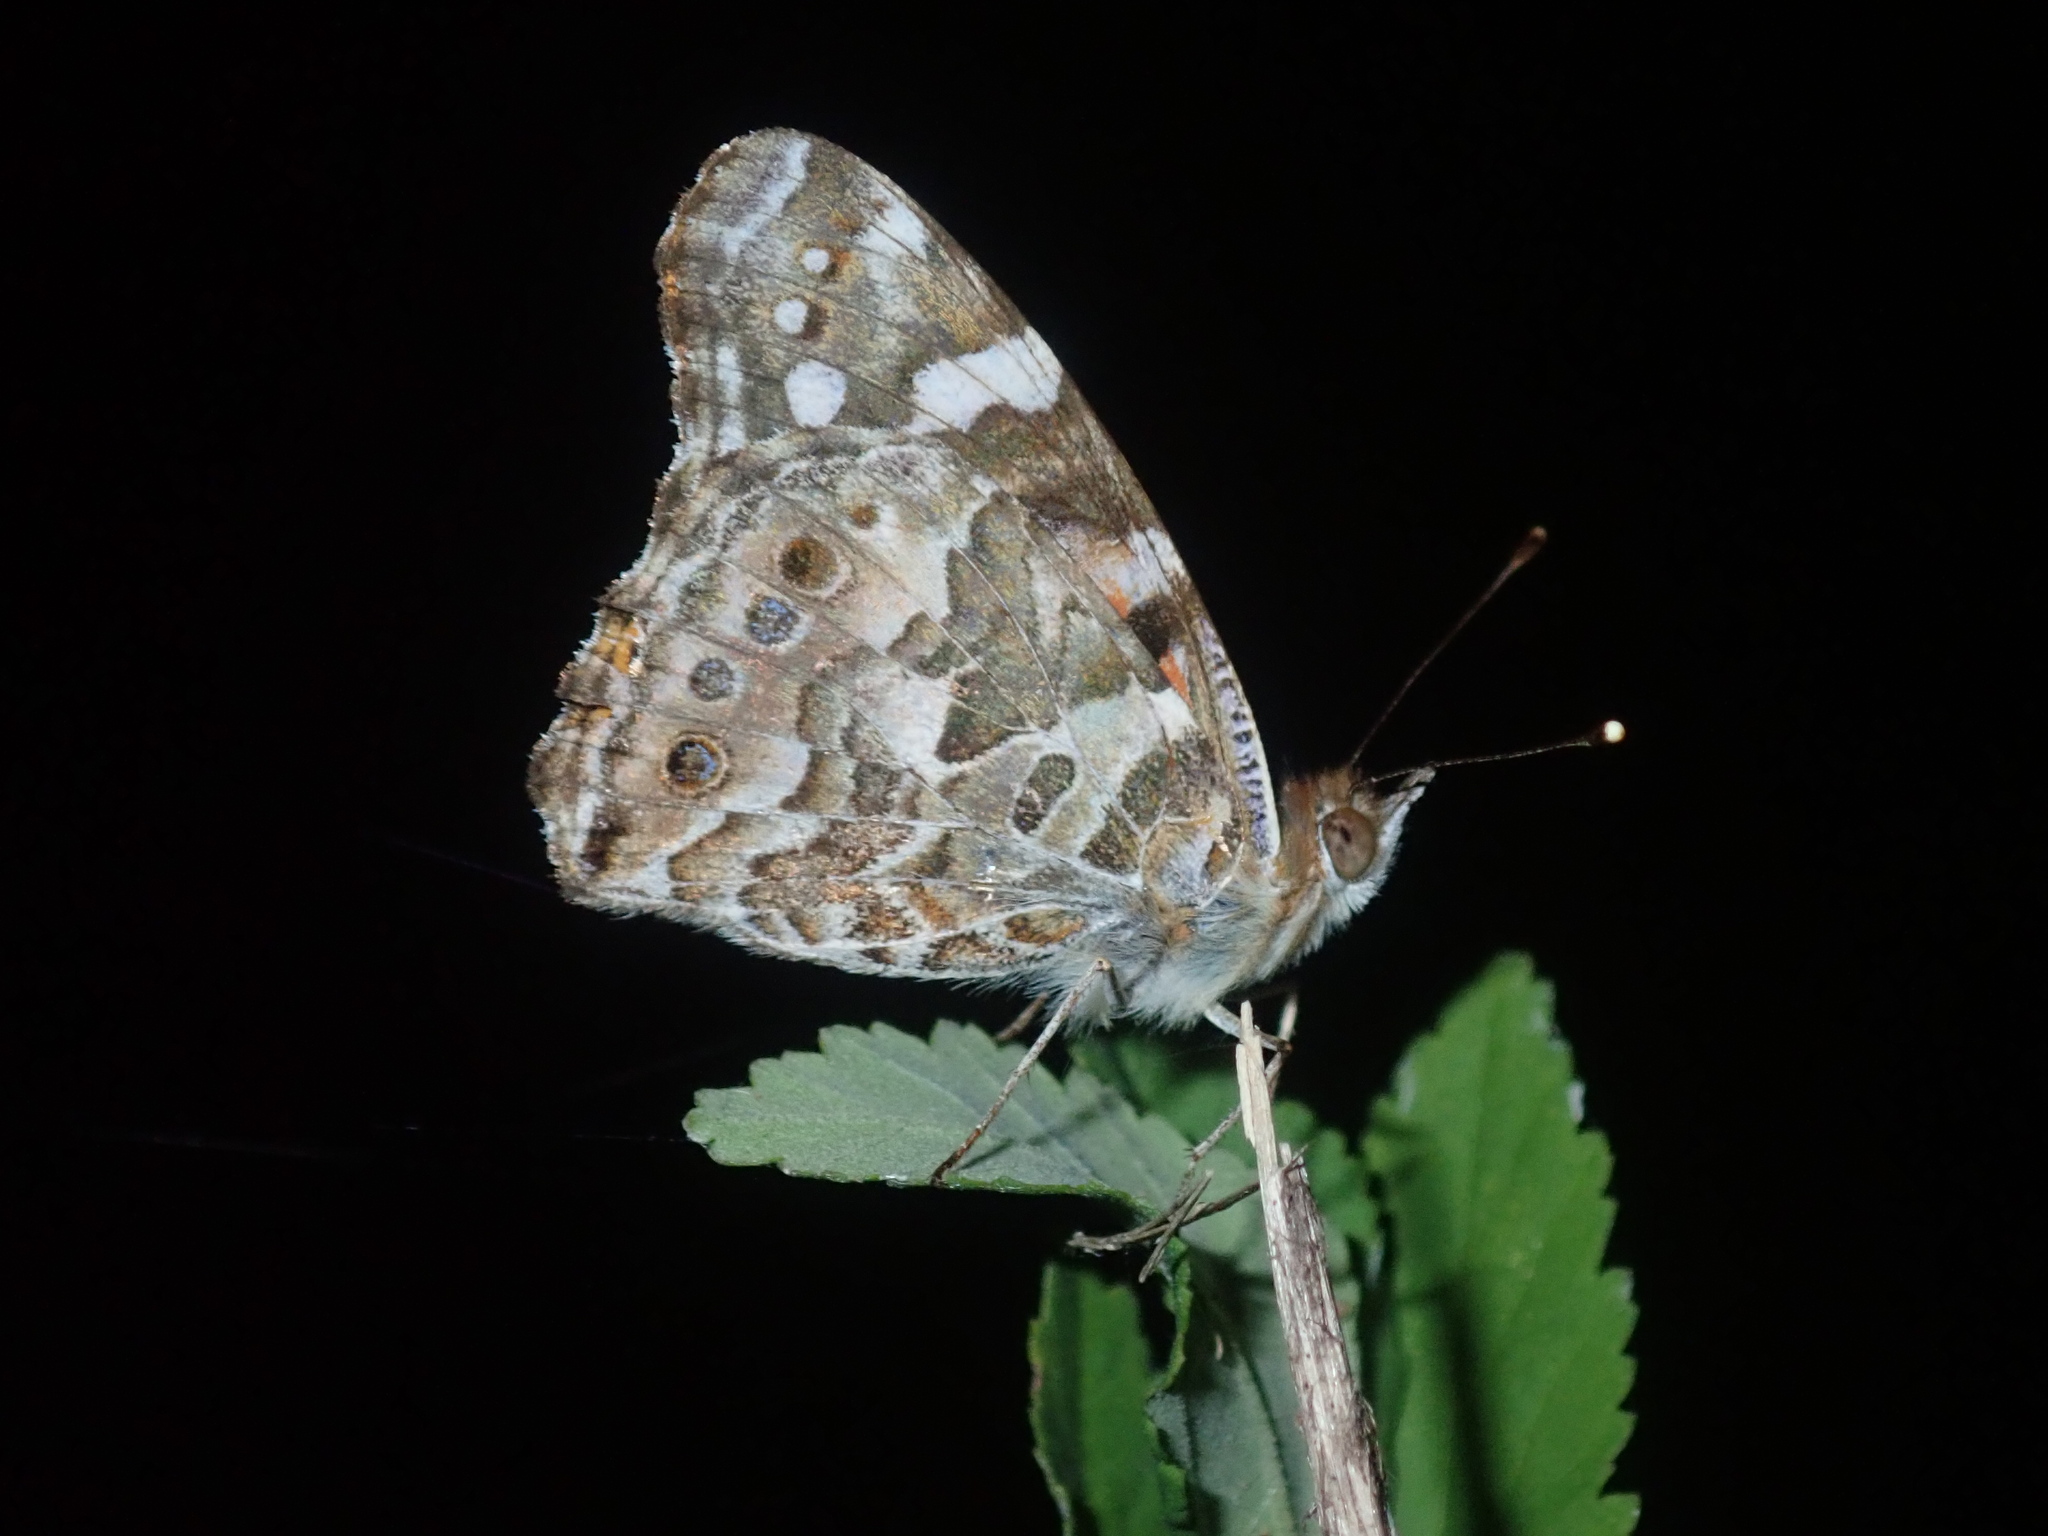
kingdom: Animalia
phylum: Arthropoda
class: Insecta
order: Lepidoptera
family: Nymphalidae
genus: Vanessa
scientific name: Vanessa kershawi
